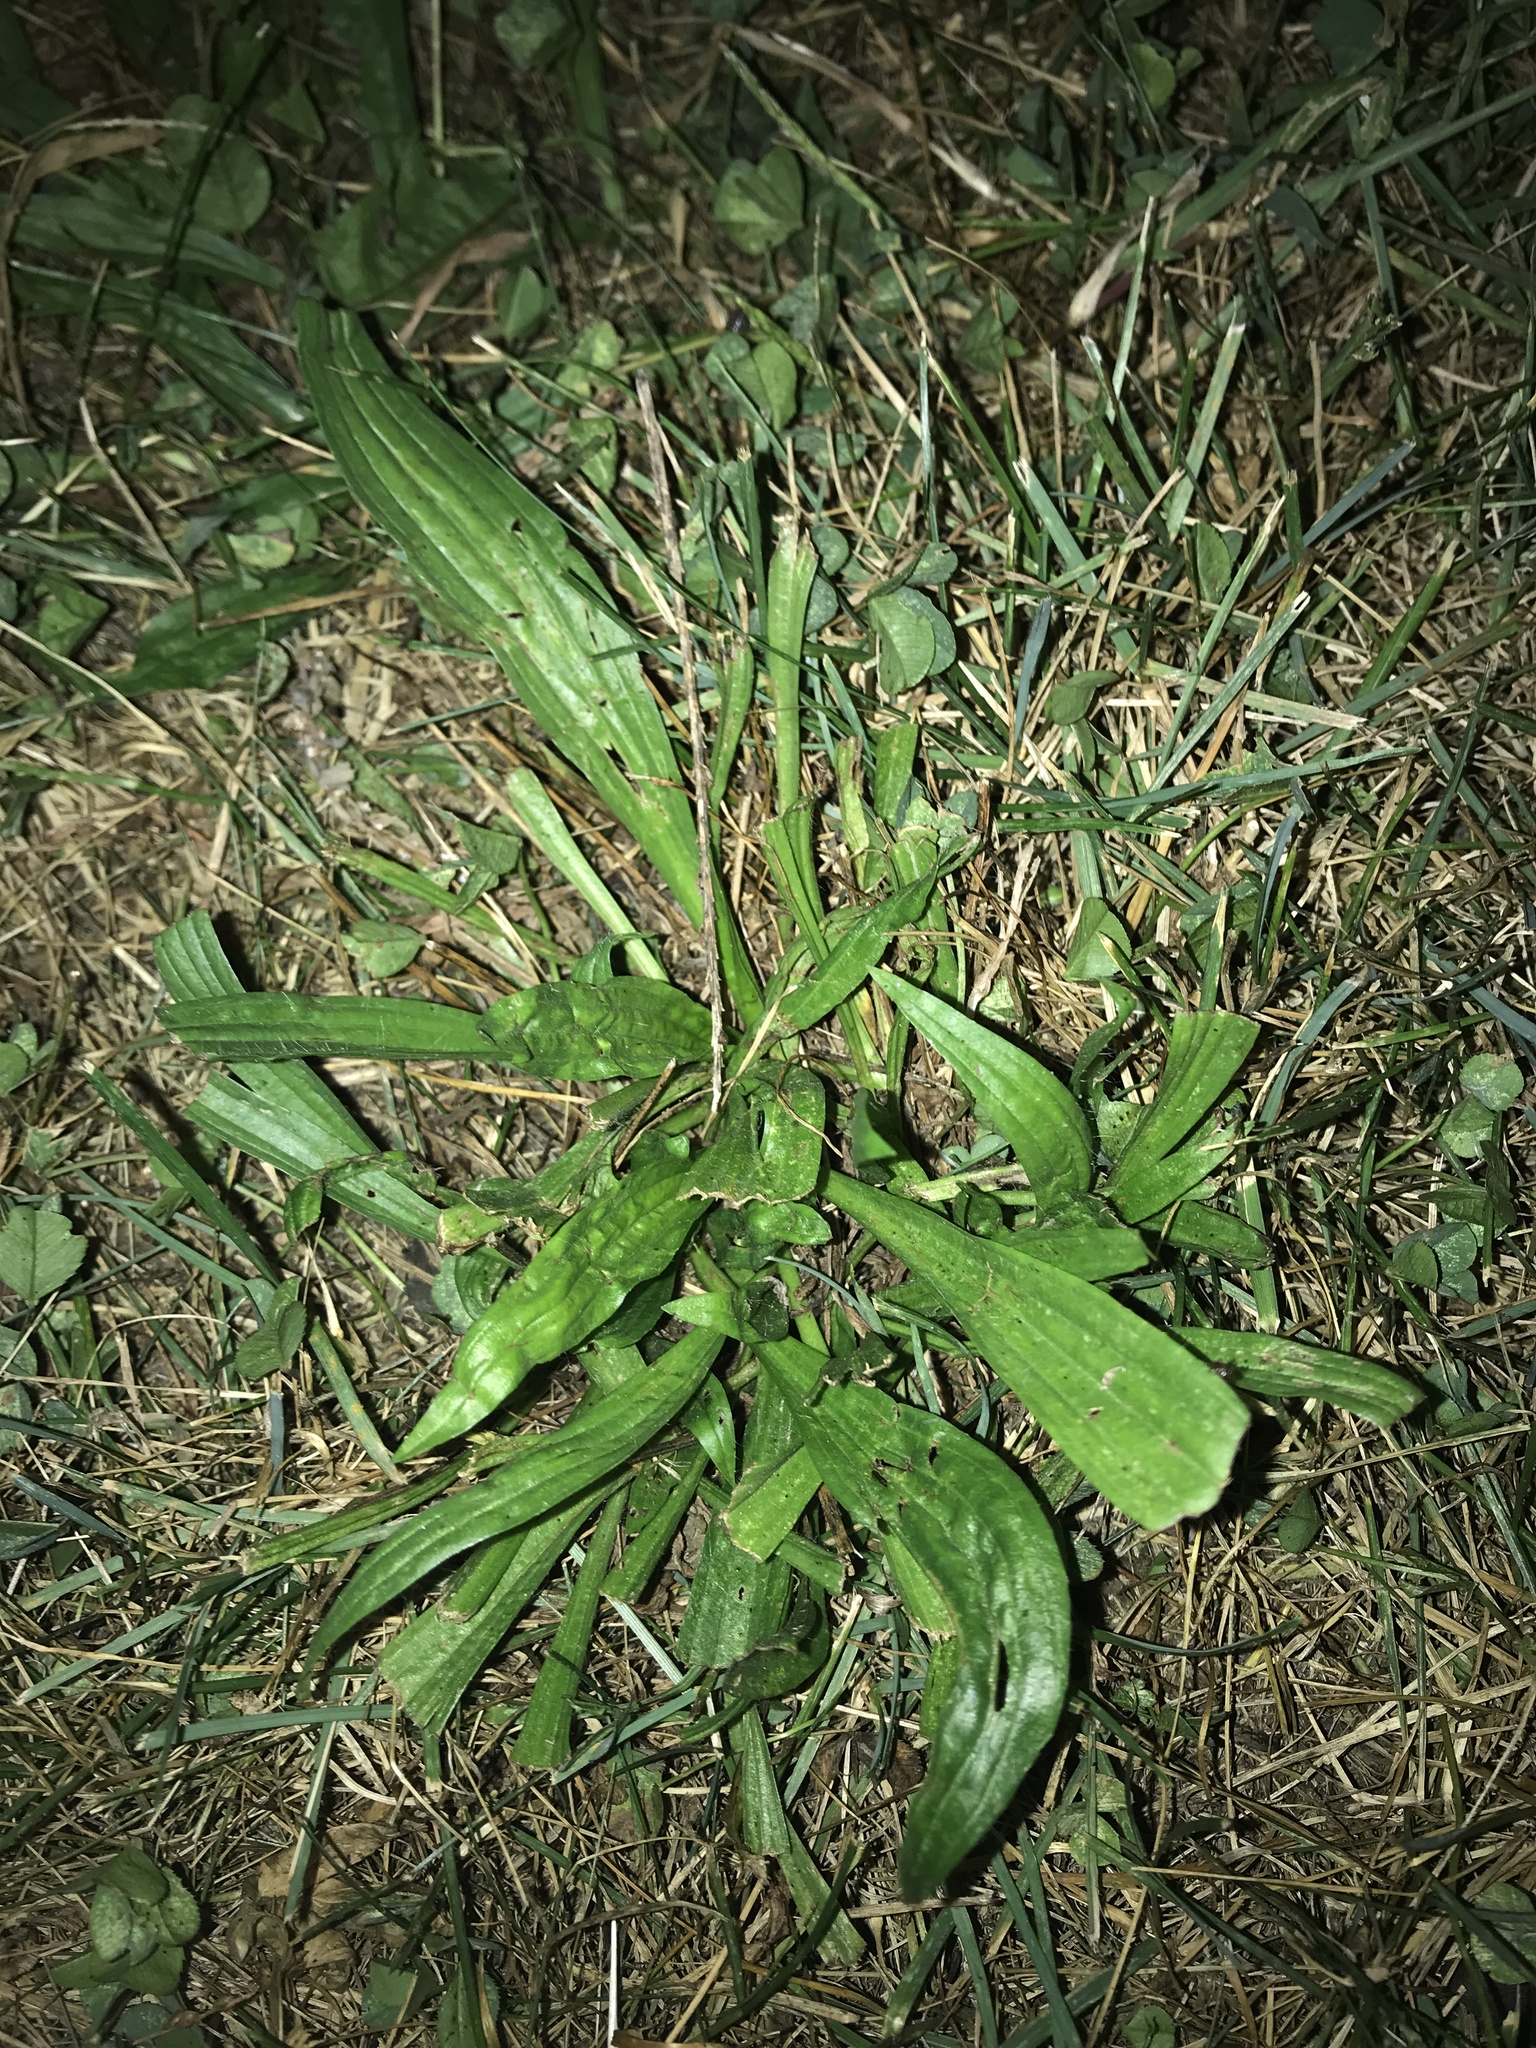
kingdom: Plantae
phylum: Tracheophyta
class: Magnoliopsida
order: Lamiales
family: Plantaginaceae
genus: Plantago
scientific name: Plantago lanceolata
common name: Ribwort plantain
